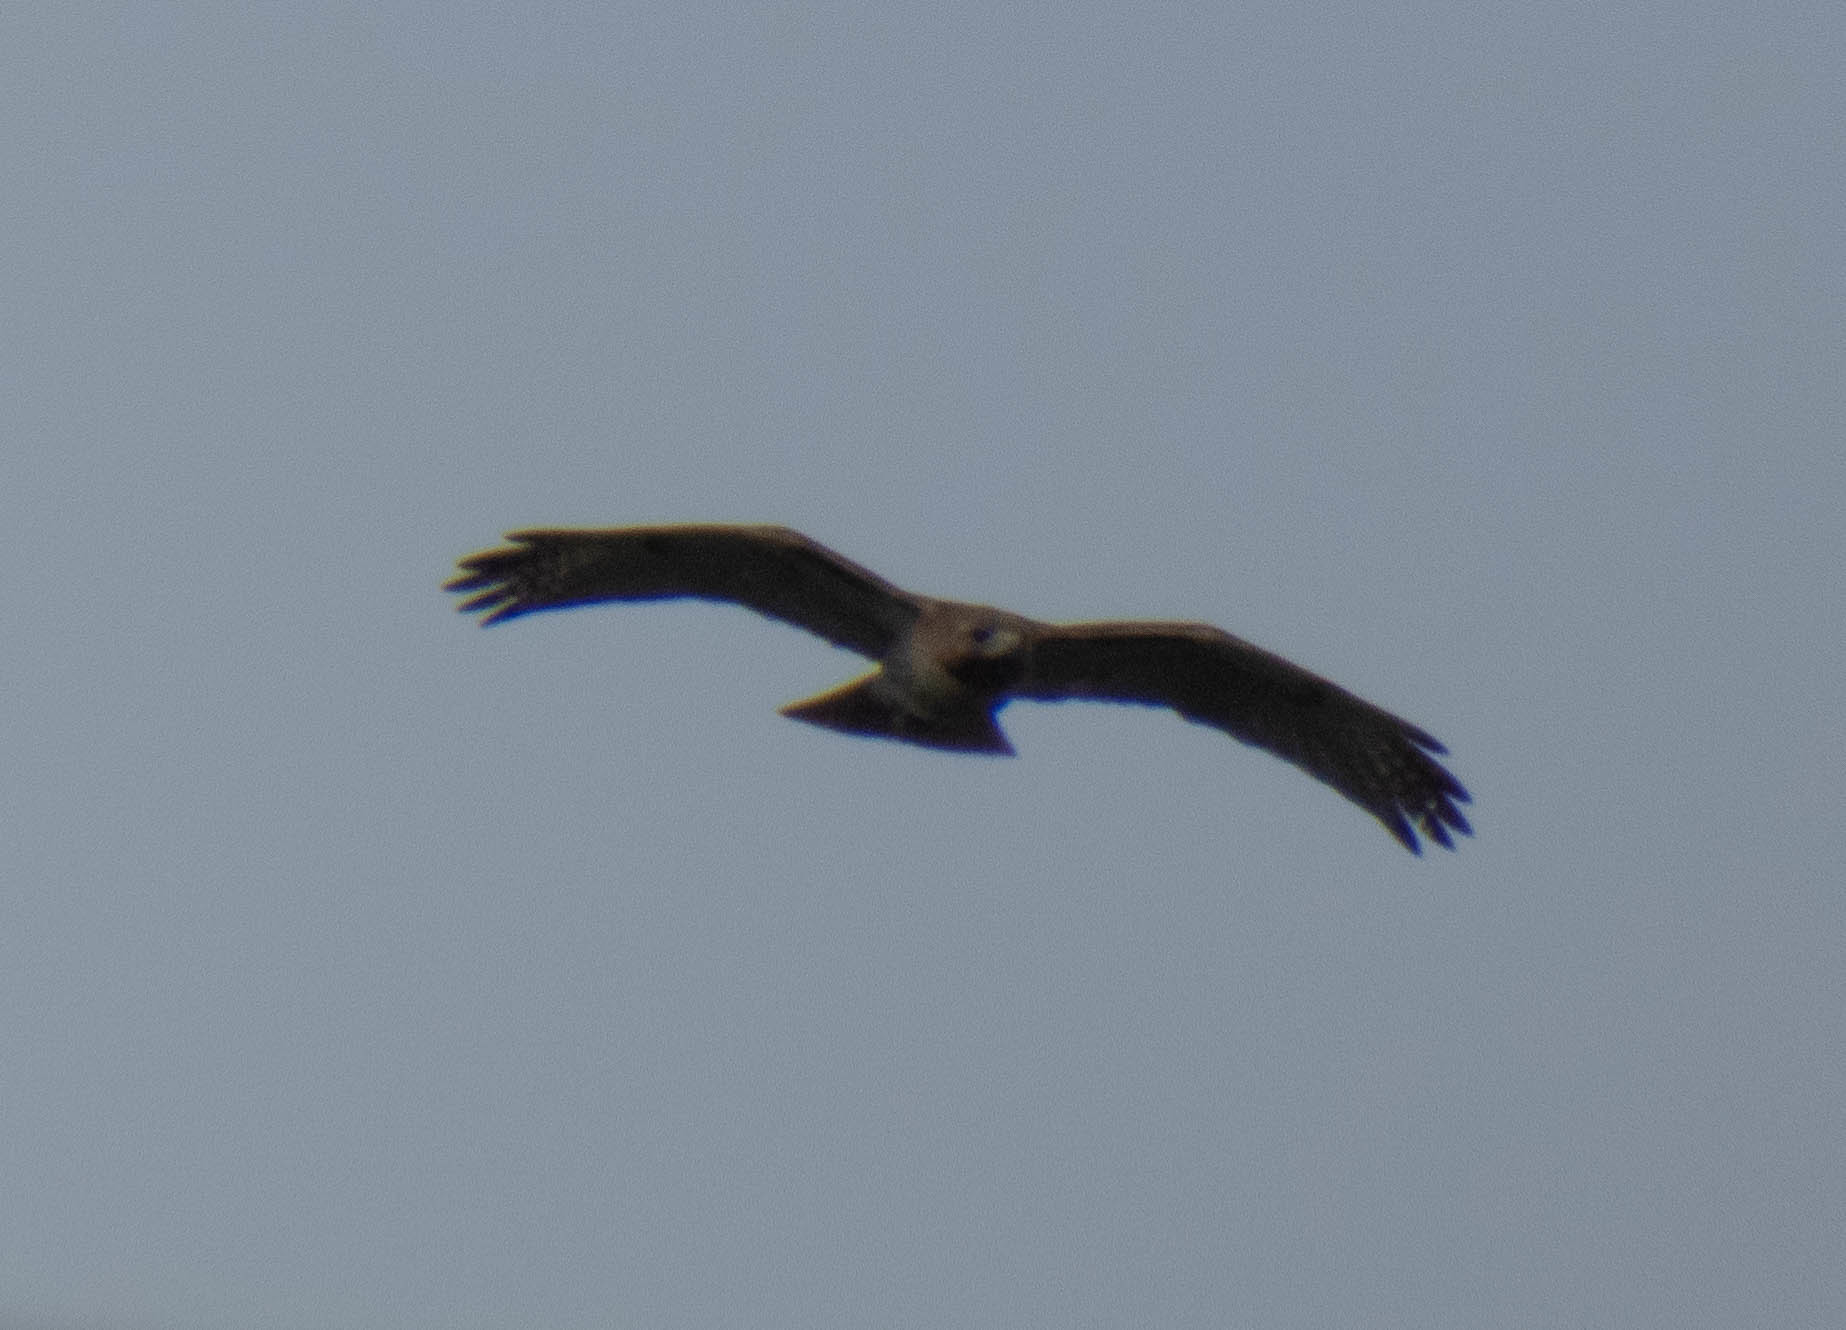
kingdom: Animalia
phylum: Chordata
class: Aves
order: Accipitriformes
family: Accipitridae
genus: Buteo
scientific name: Buteo jamaicensis
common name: Red-tailed hawk
